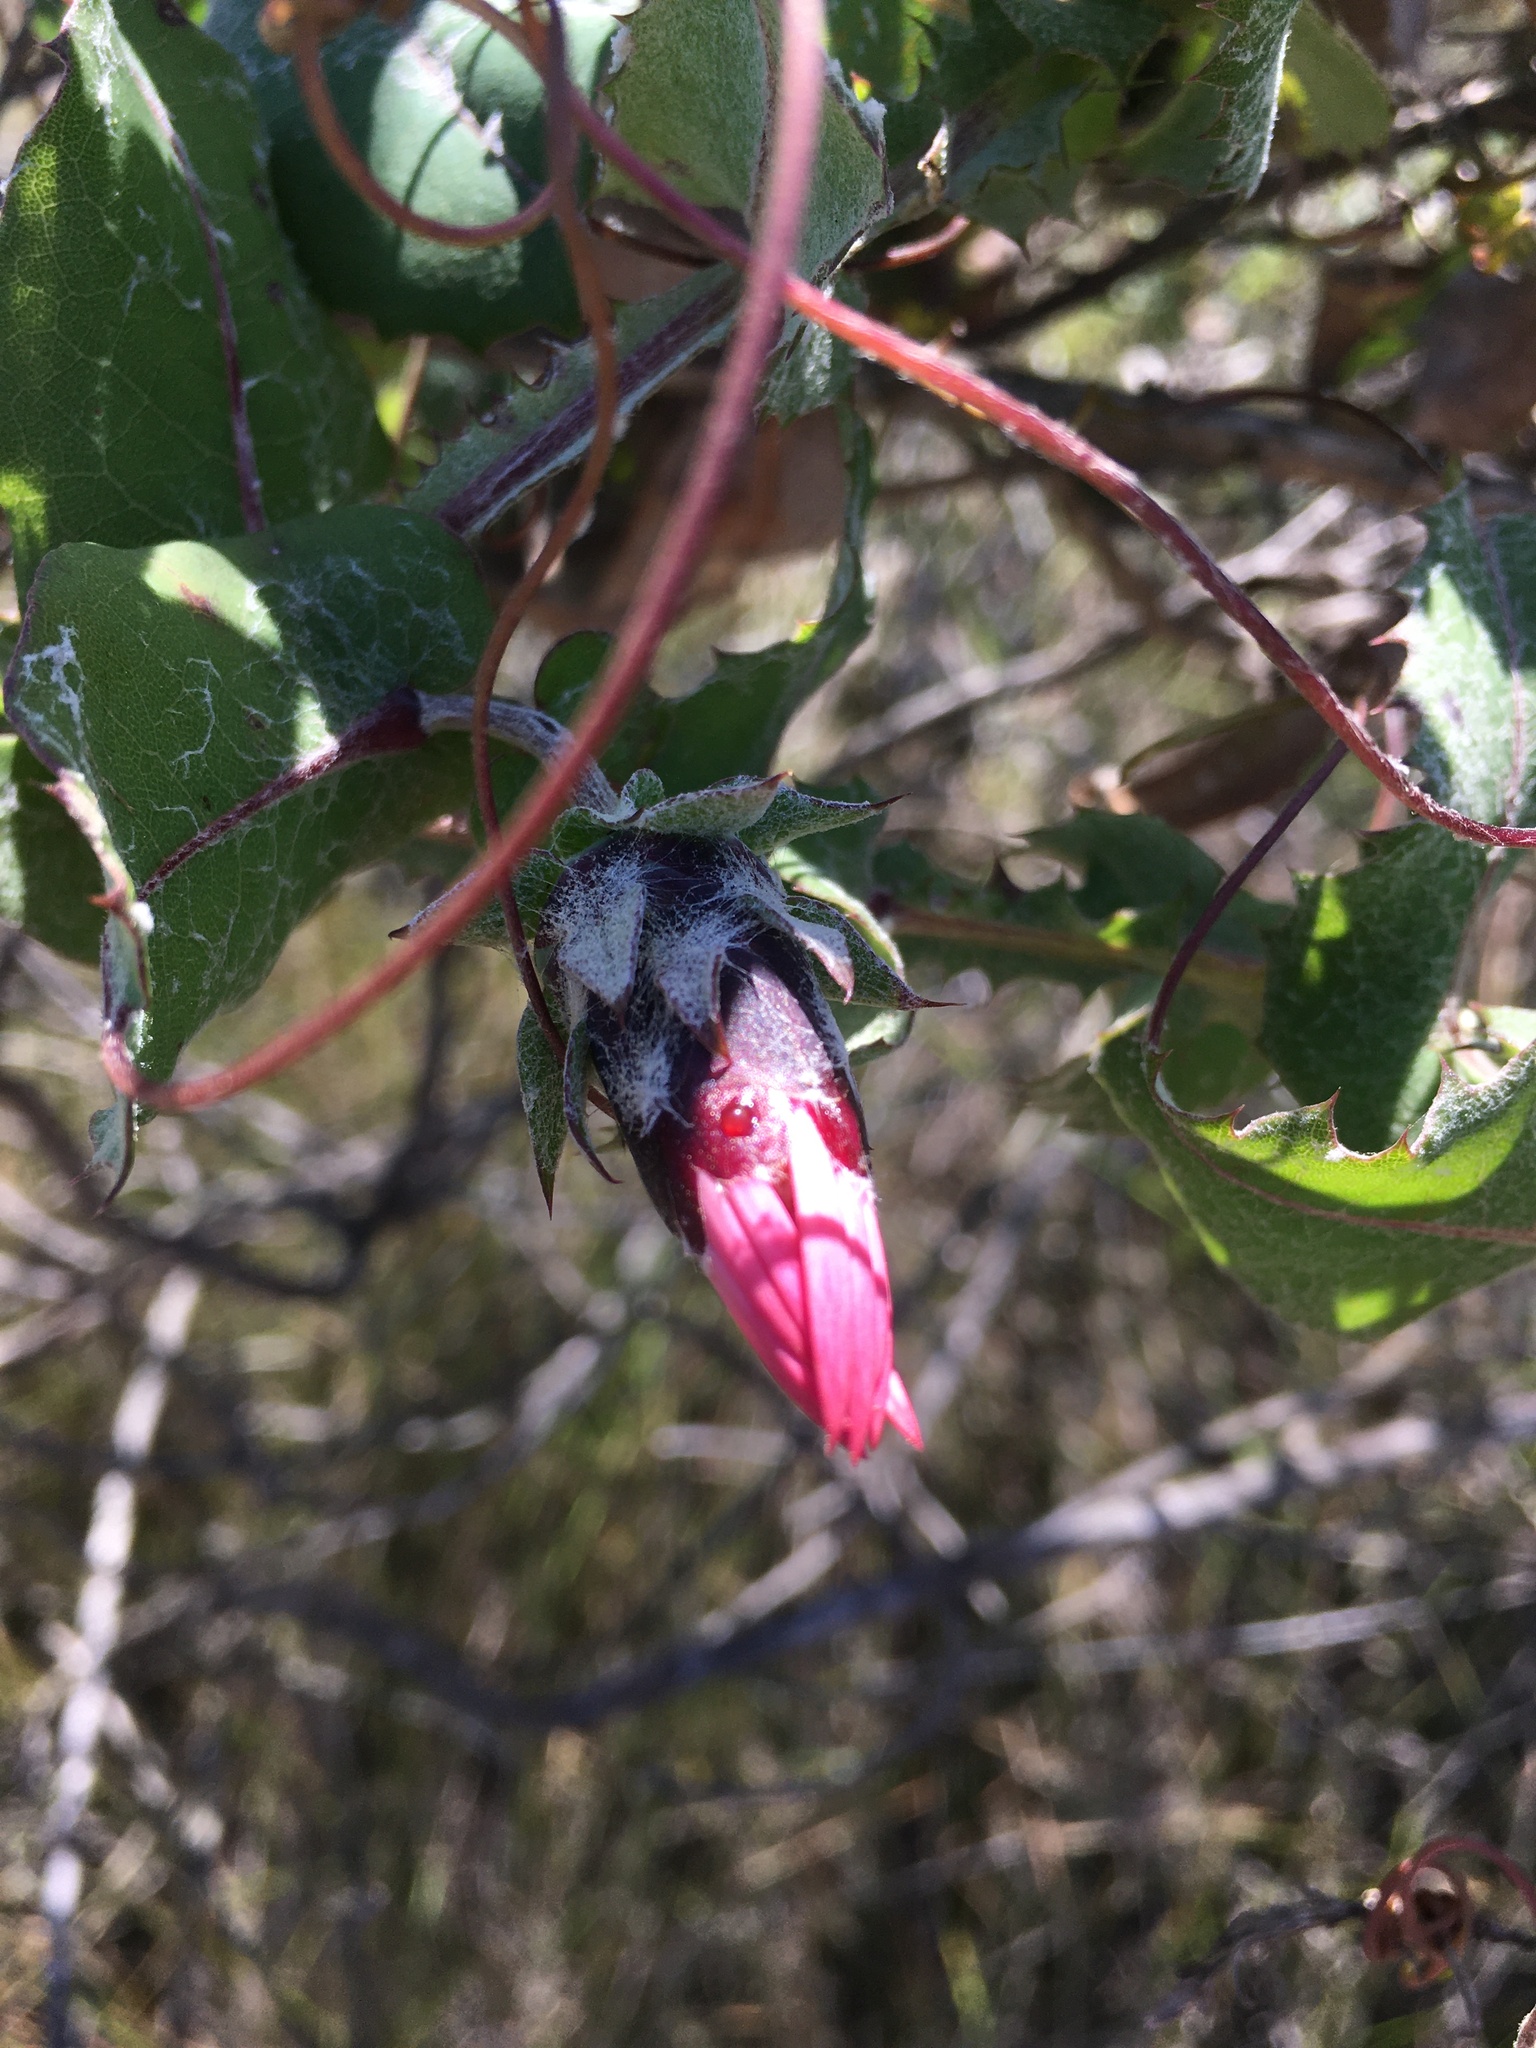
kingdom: Plantae
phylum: Tracheophyta
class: Magnoliopsida
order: Asterales
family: Asteraceae
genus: Mutisia
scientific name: Mutisia latifolia
